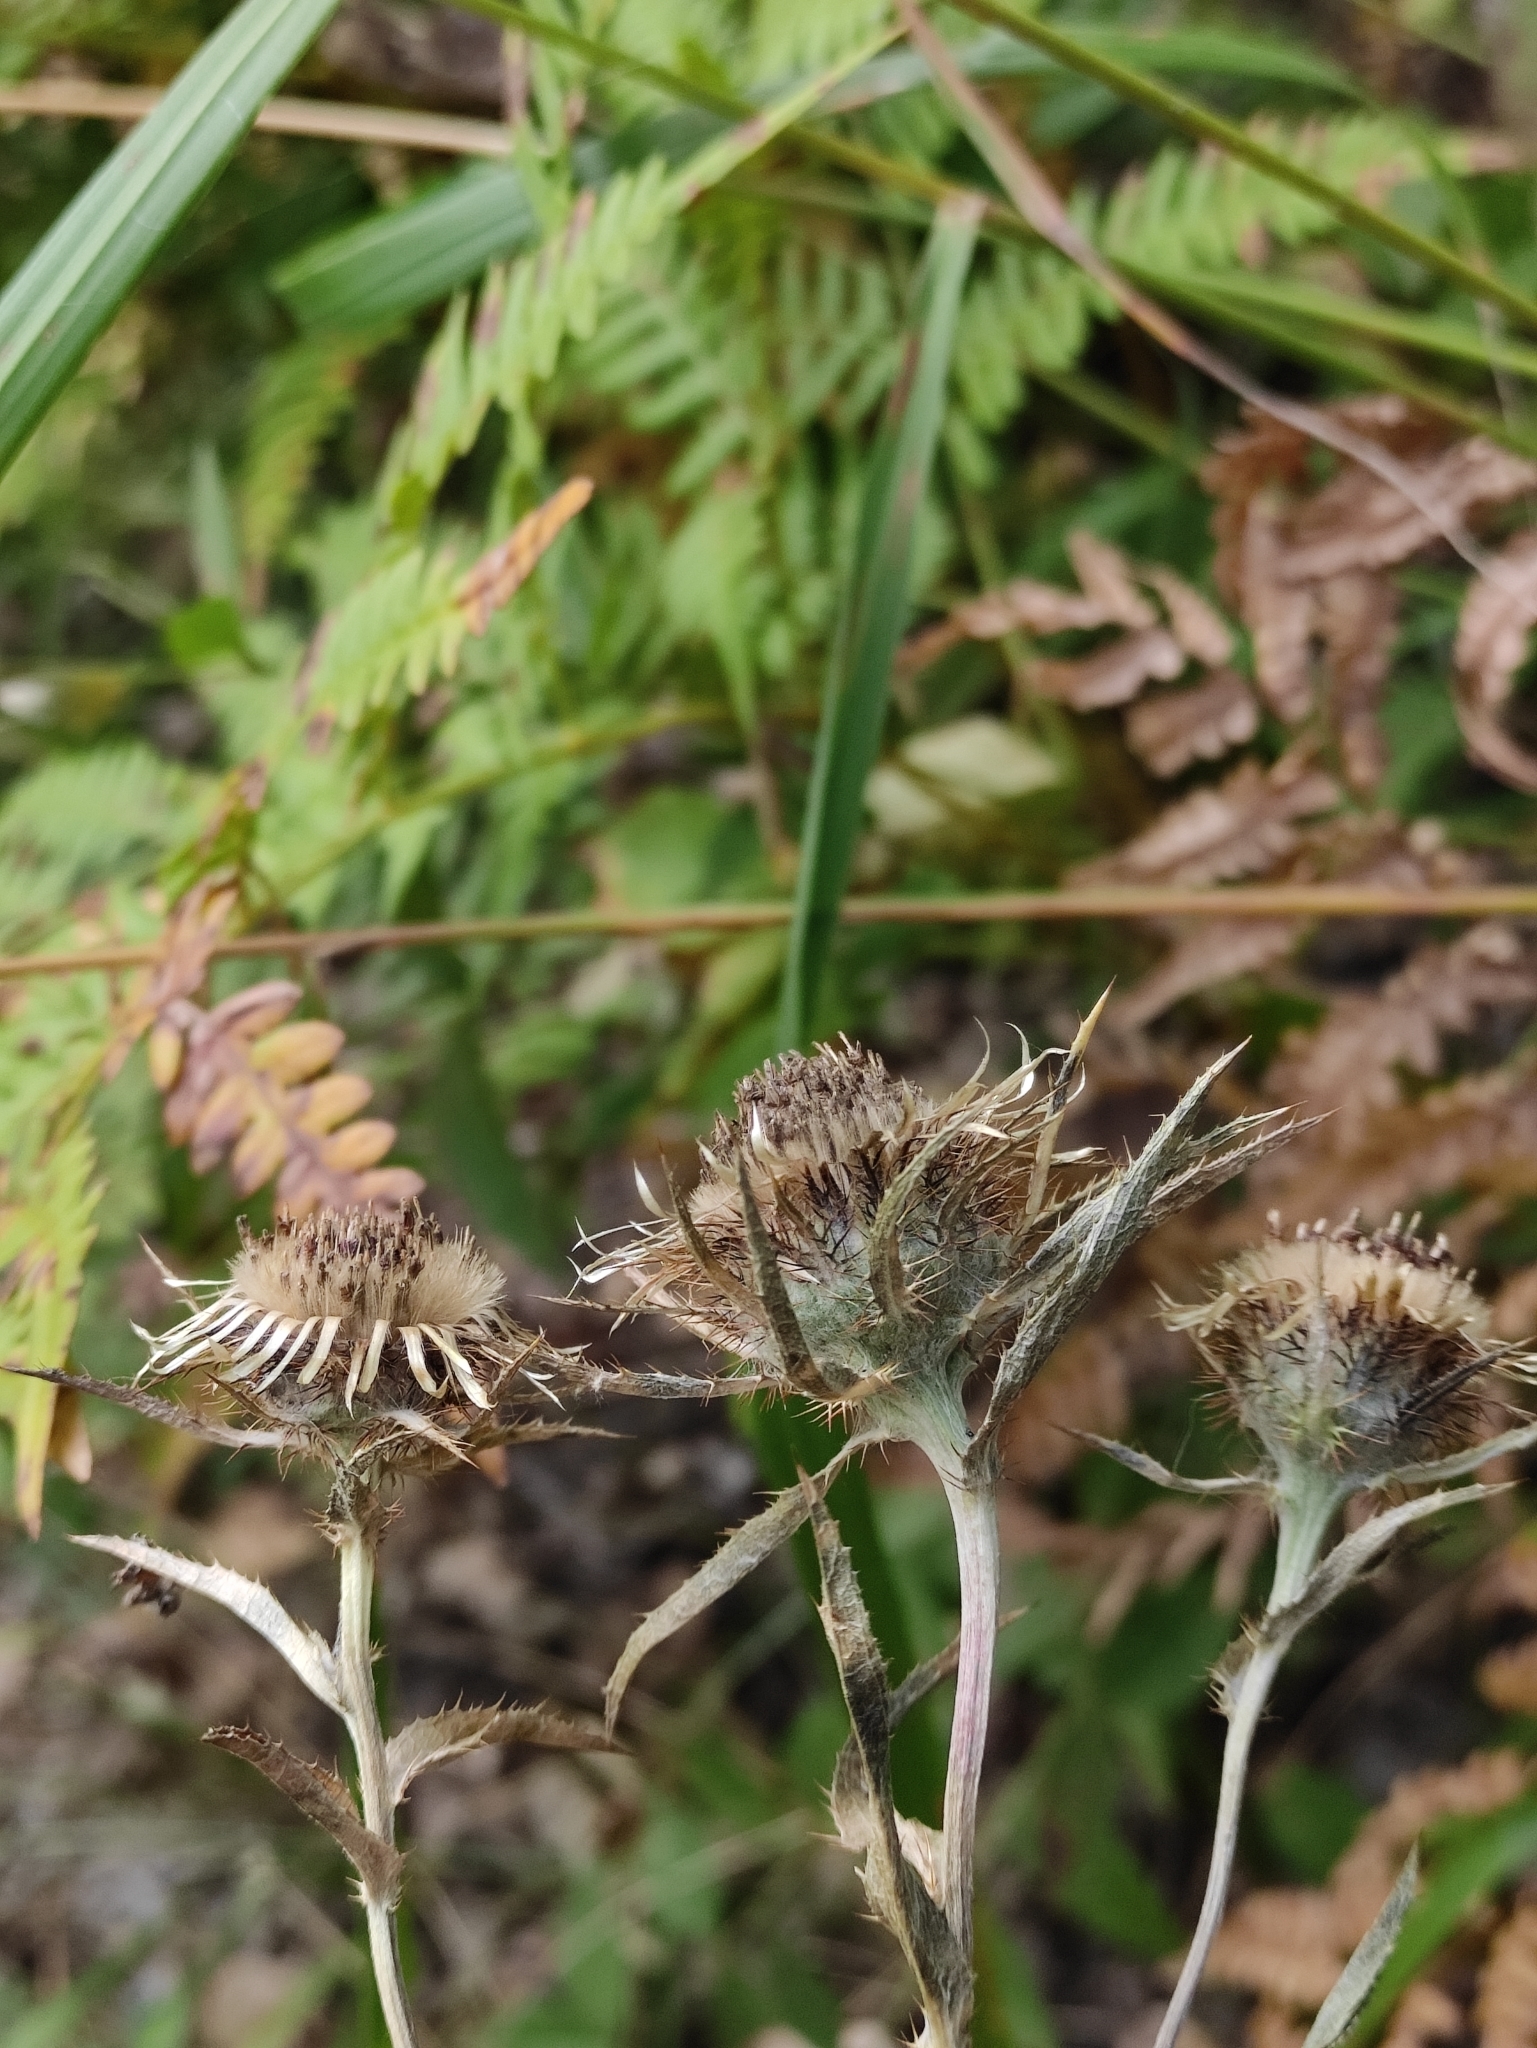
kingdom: Plantae
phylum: Tracheophyta
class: Magnoliopsida
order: Asterales
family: Asteraceae
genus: Carlina
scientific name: Carlina biebersteinii
